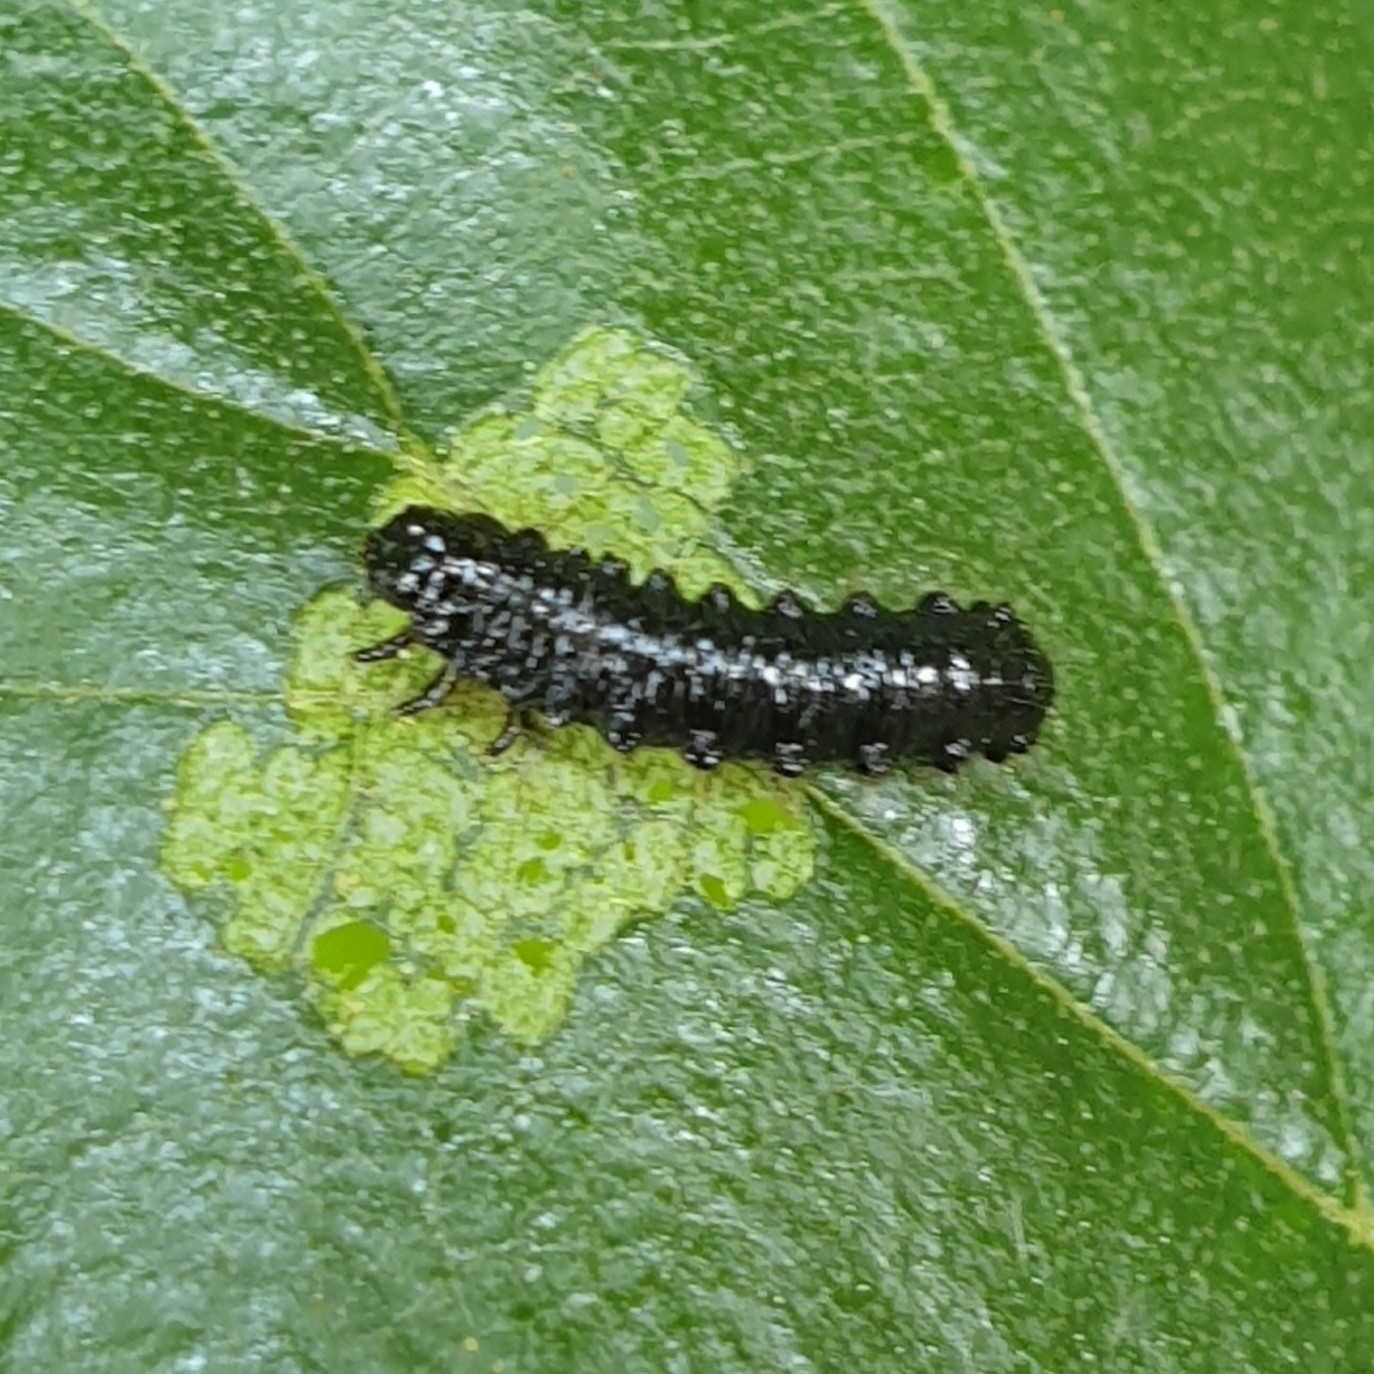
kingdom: Animalia
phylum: Arthropoda
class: Insecta
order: Coleoptera
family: Chrysomelidae
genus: Agelastica
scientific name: Agelastica alni
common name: Alder leaf beetle
